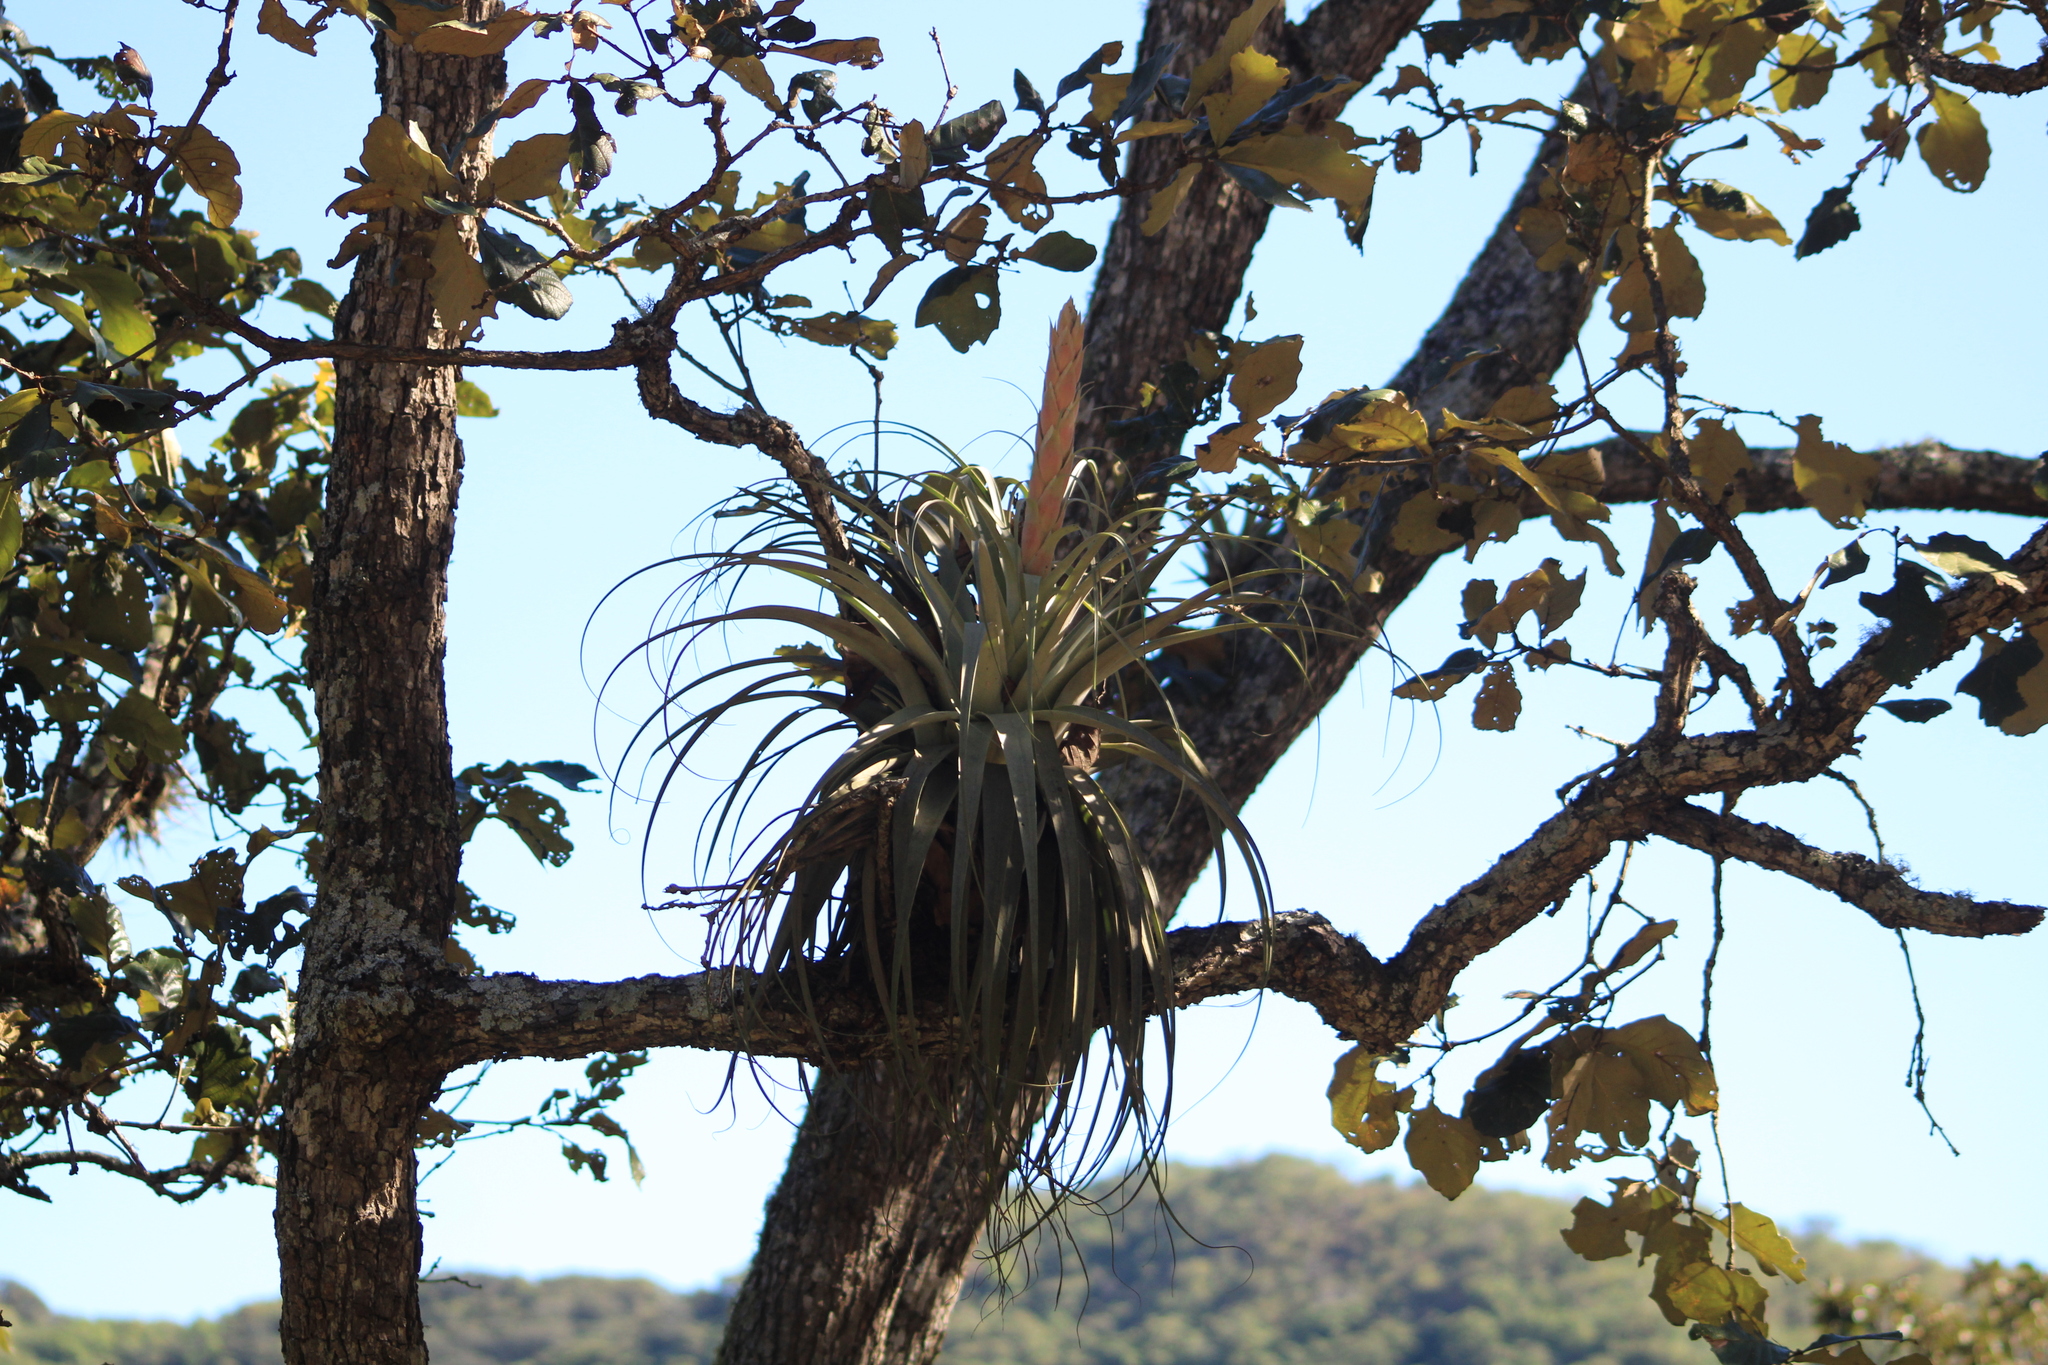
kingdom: Plantae
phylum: Tracheophyta
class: Liliopsida
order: Poales
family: Bromeliaceae
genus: Tillandsia
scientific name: Tillandsia bourgaei
